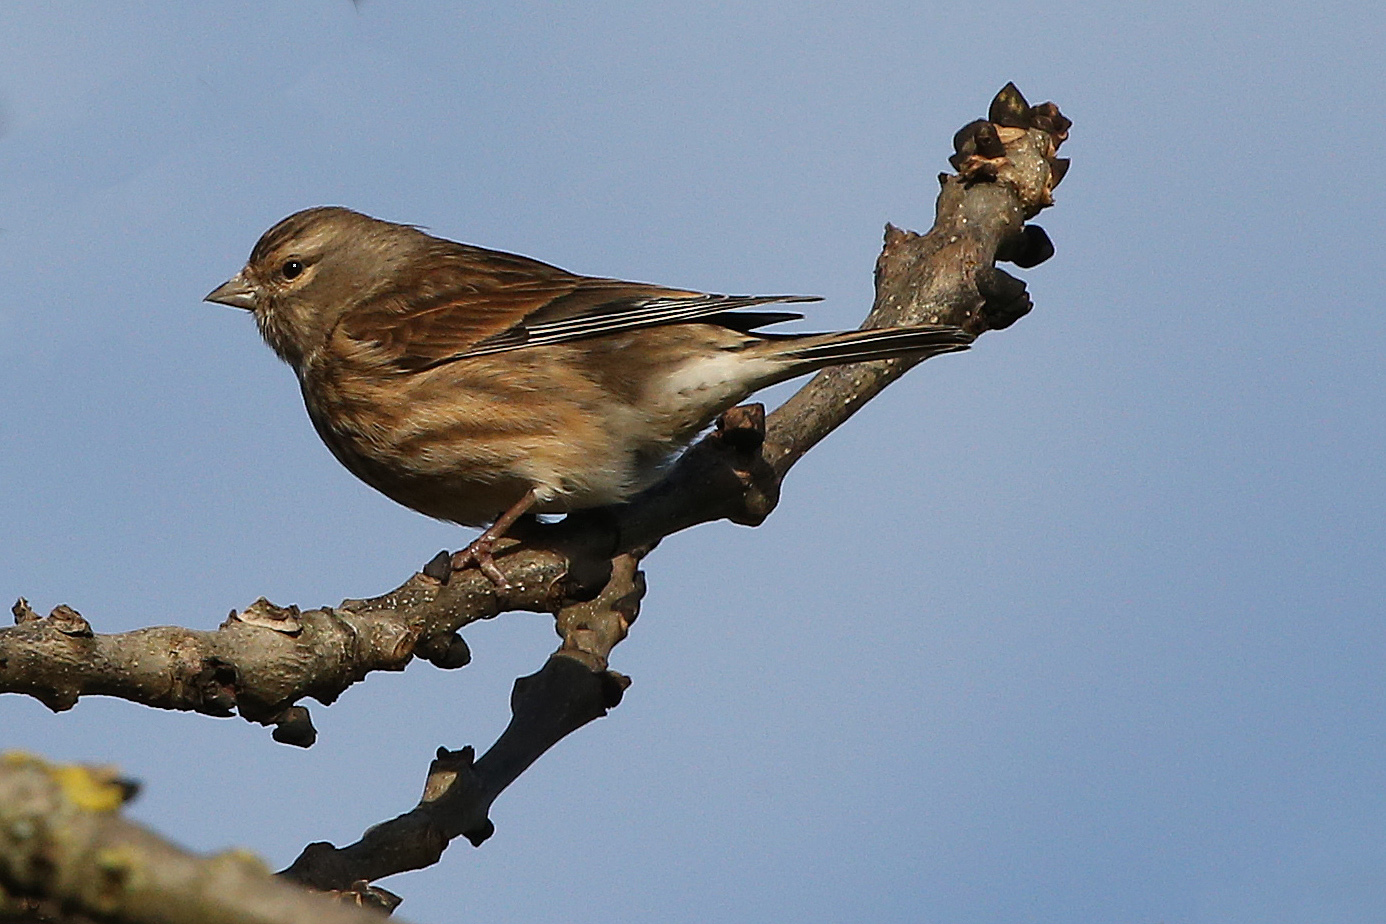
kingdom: Animalia
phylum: Chordata
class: Aves
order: Passeriformes
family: Fringillidae
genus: Linaria
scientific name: Linaria cannabina
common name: Common linnet
